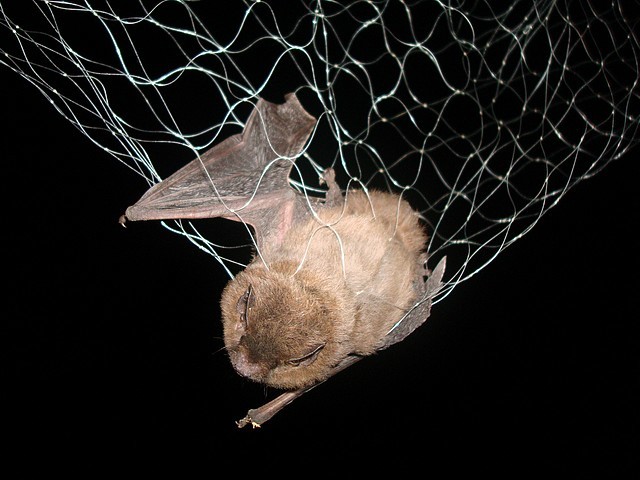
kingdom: Animalia
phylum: Chordata
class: Mammalia
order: Chiroptera
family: Vespertilionidae
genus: Pipistrellus
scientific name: Pipistrellus nathusii
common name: Nathusius's pipistrelle
